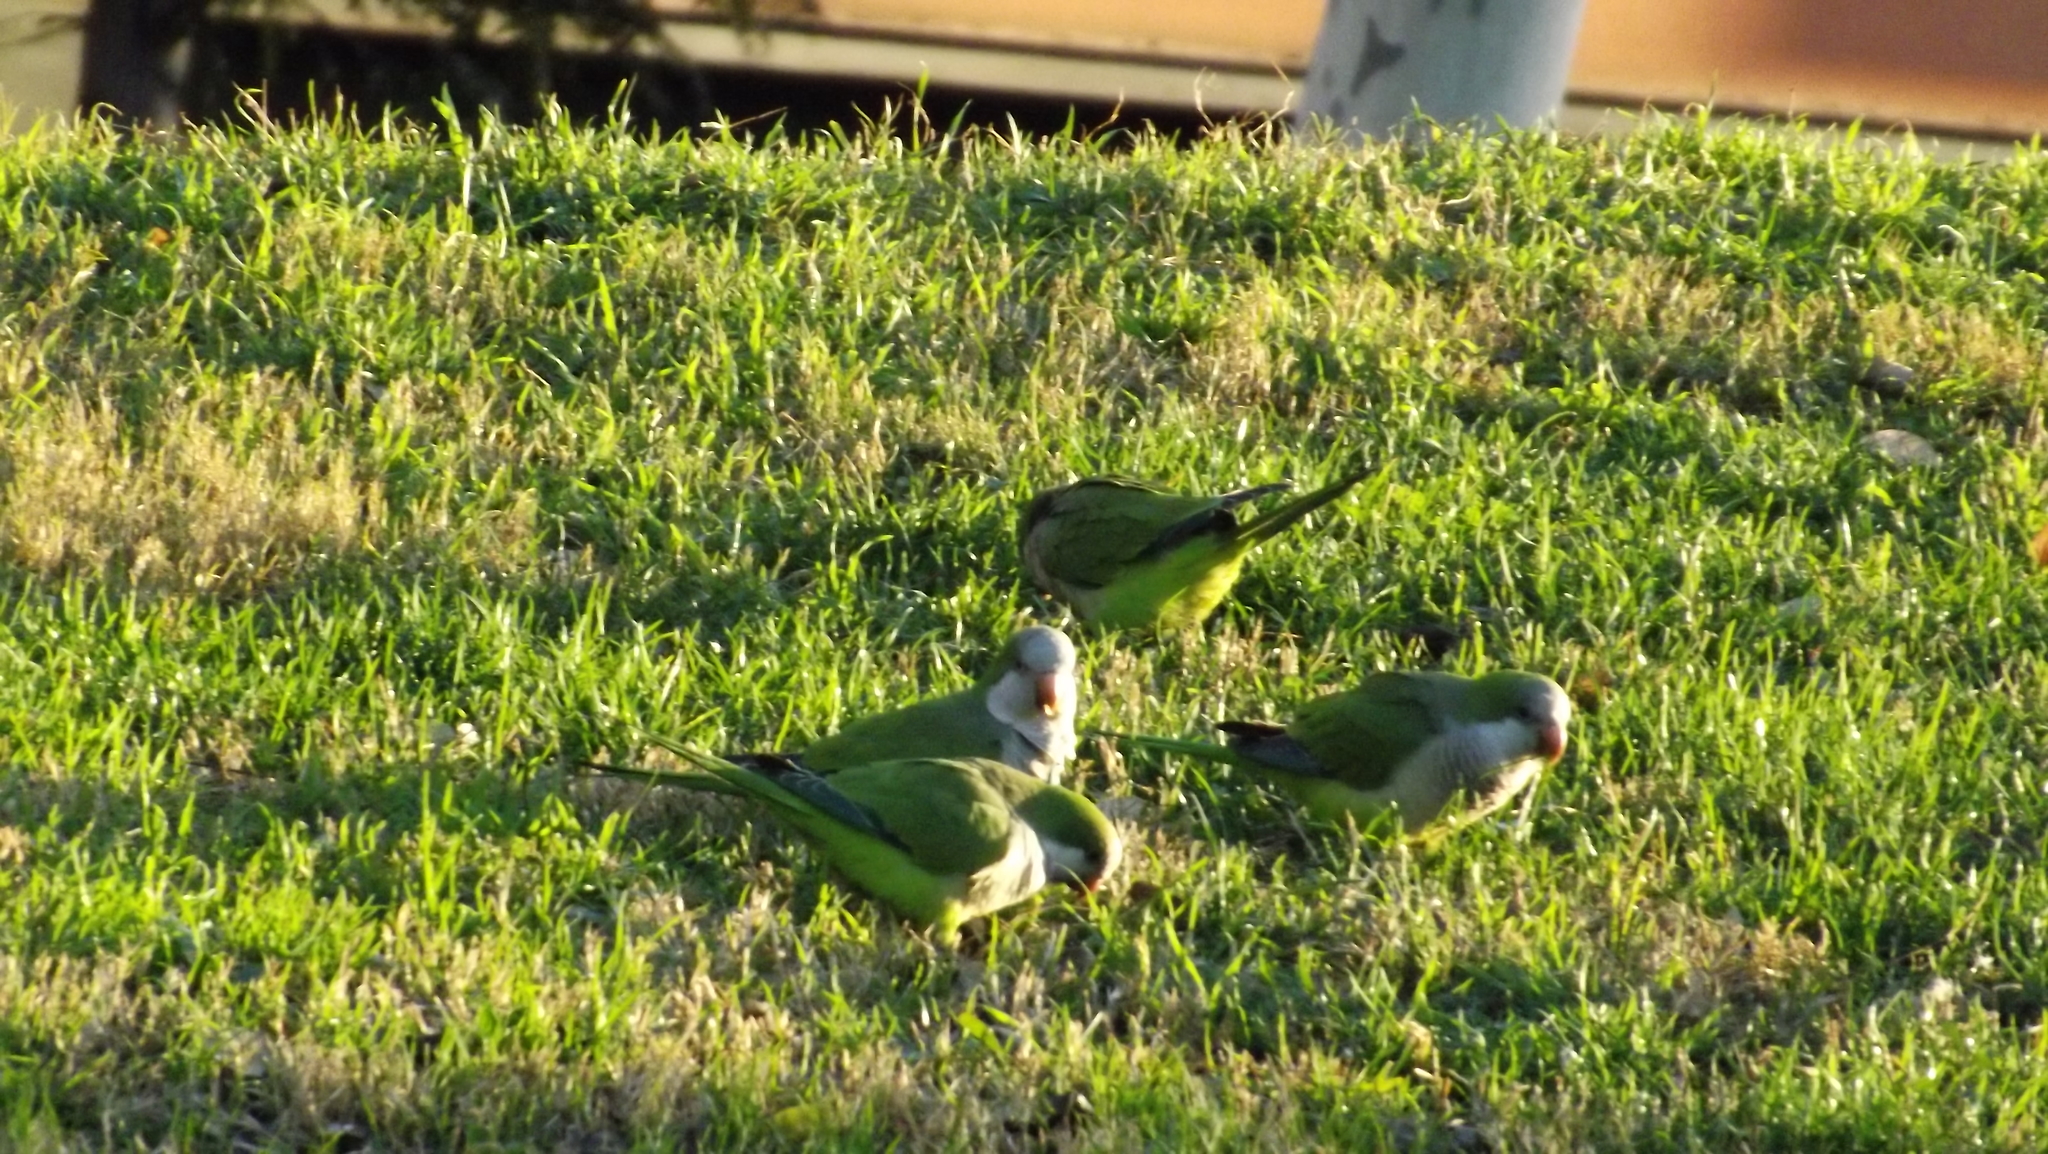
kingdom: Animalia
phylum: Chordata
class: Aves
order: Psittaciformes
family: Psittacidae
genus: Myiopsitta
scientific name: Myiopsitta monachus
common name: Monk parakeet
